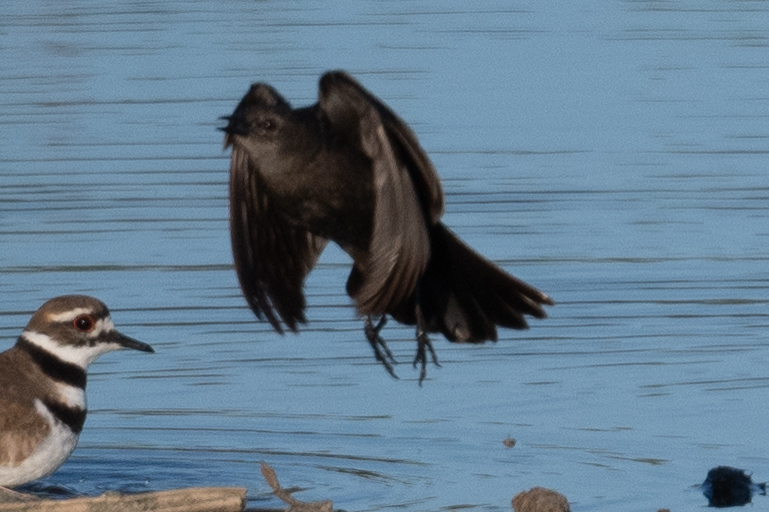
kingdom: Animalia
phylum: Chordata
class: Aves
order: Passeriformes
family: Icteridae
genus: Euphagus
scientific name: Euphagus cyanocephalus
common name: Brewer's blackbird
